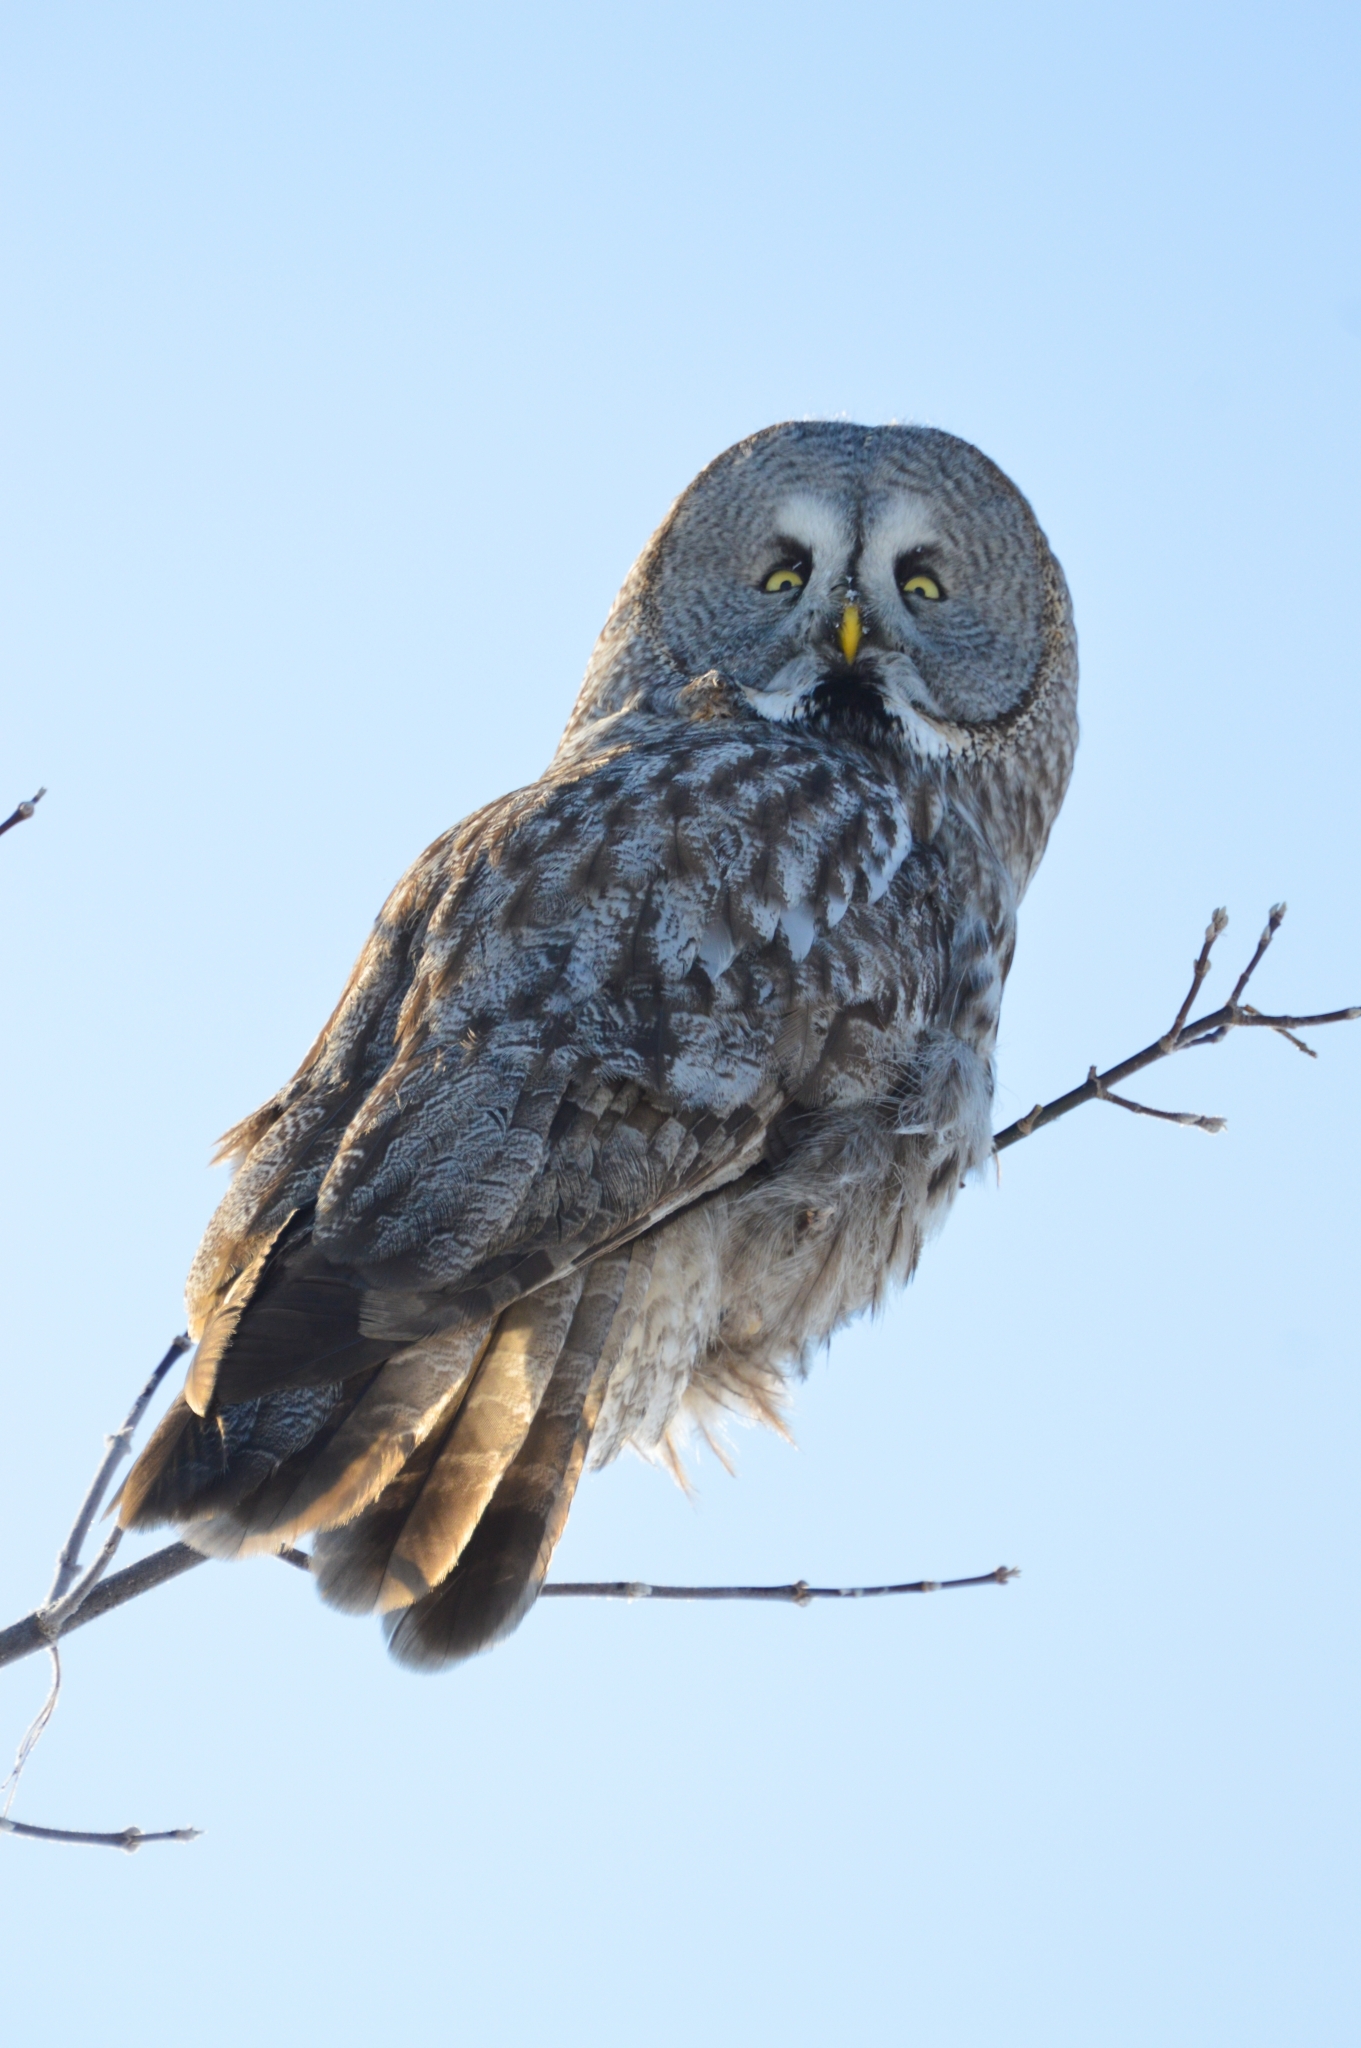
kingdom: Animalia
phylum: Chordata
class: Aves
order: Strigiformes
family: Strigidae
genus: Strix
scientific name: Strix nebulosa
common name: Great grey owl
